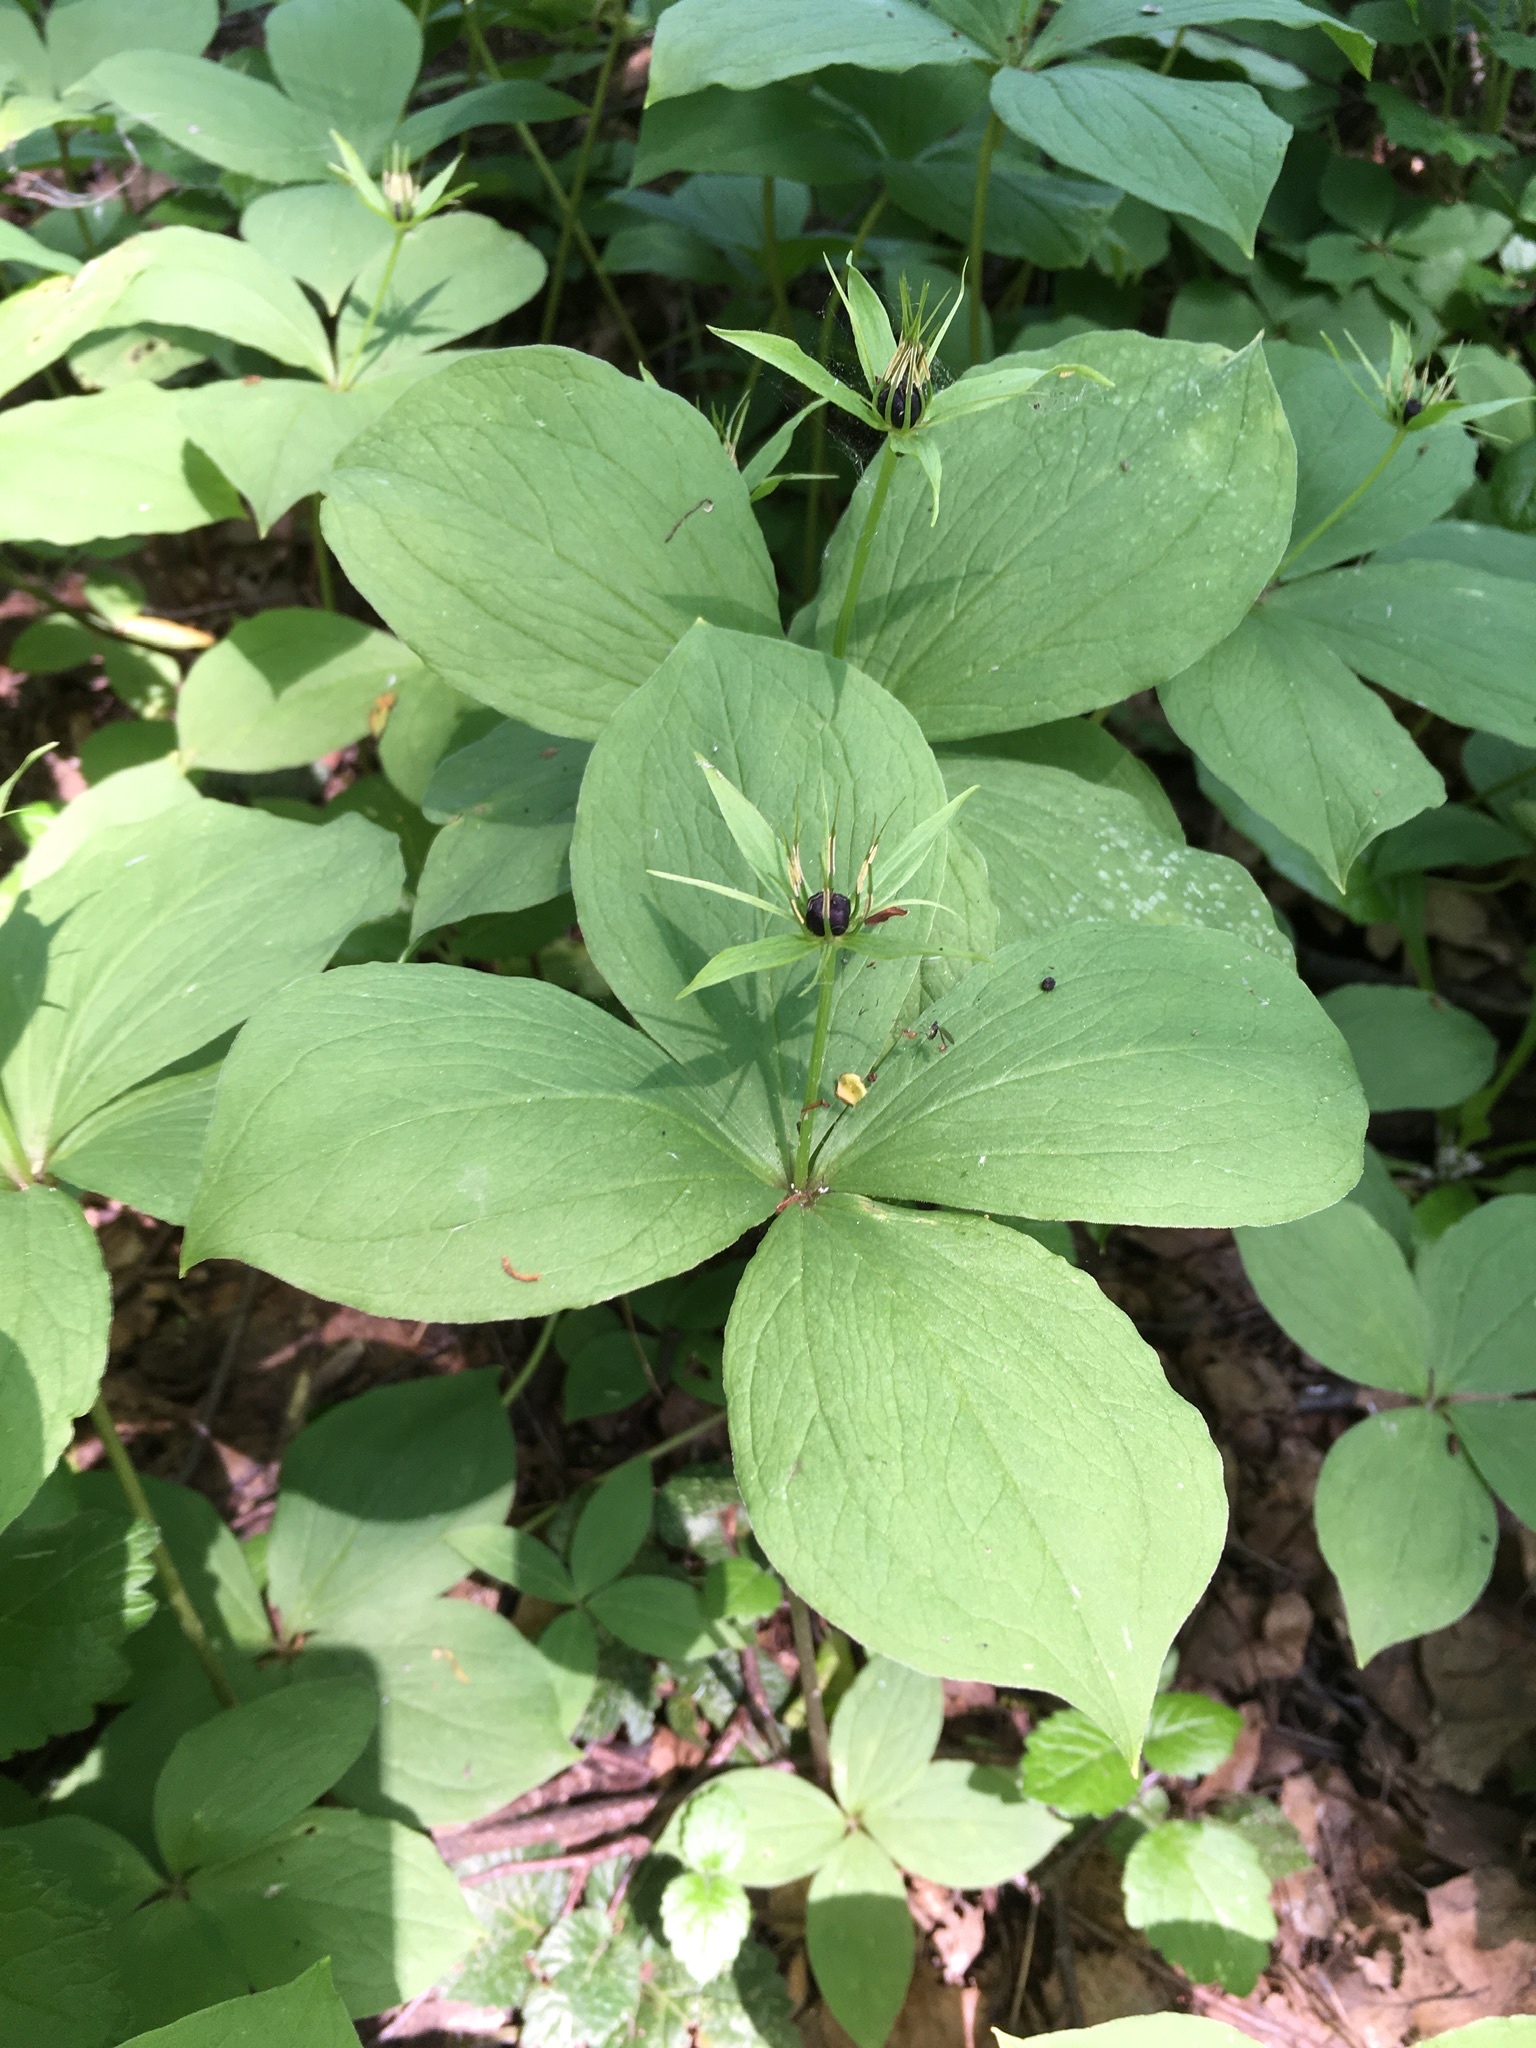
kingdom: Plantae
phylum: Tracheophyta
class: Liliopsida
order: Liliales
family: Melanthiaceae
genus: Paris
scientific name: Paris quadrifolia
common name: Herb-paris
